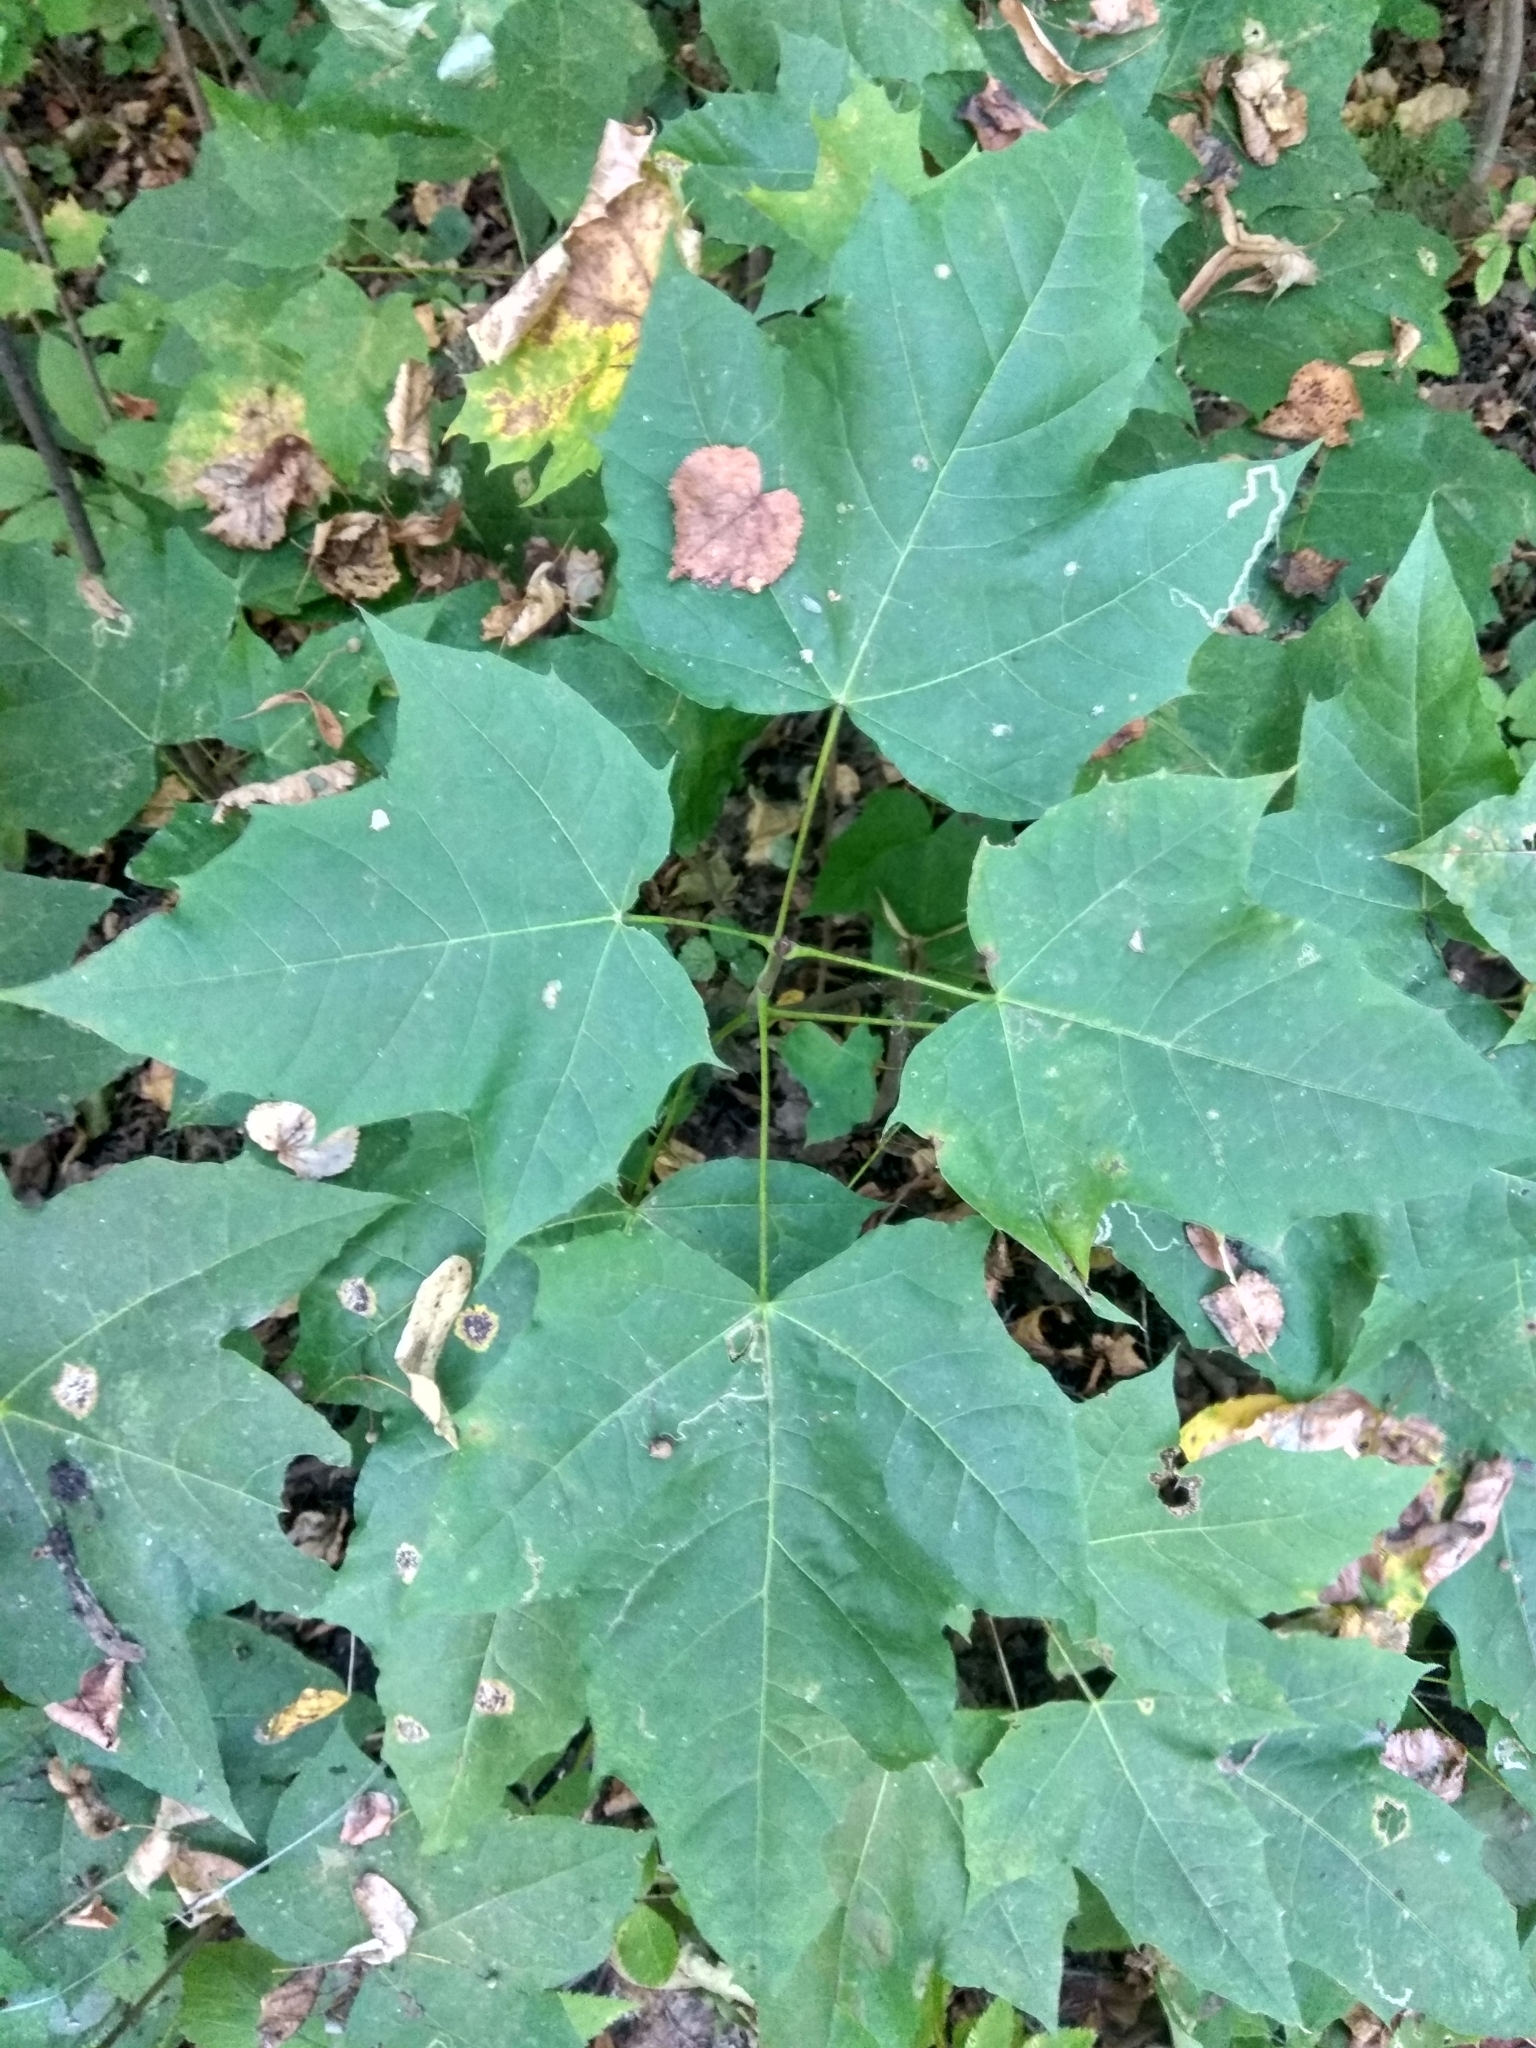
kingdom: Plantae
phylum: Tracheophyta
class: Magnoliopsida
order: Sapindales
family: Sapindaceae
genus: Acer
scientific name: Acer platanoides
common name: Norway maple
